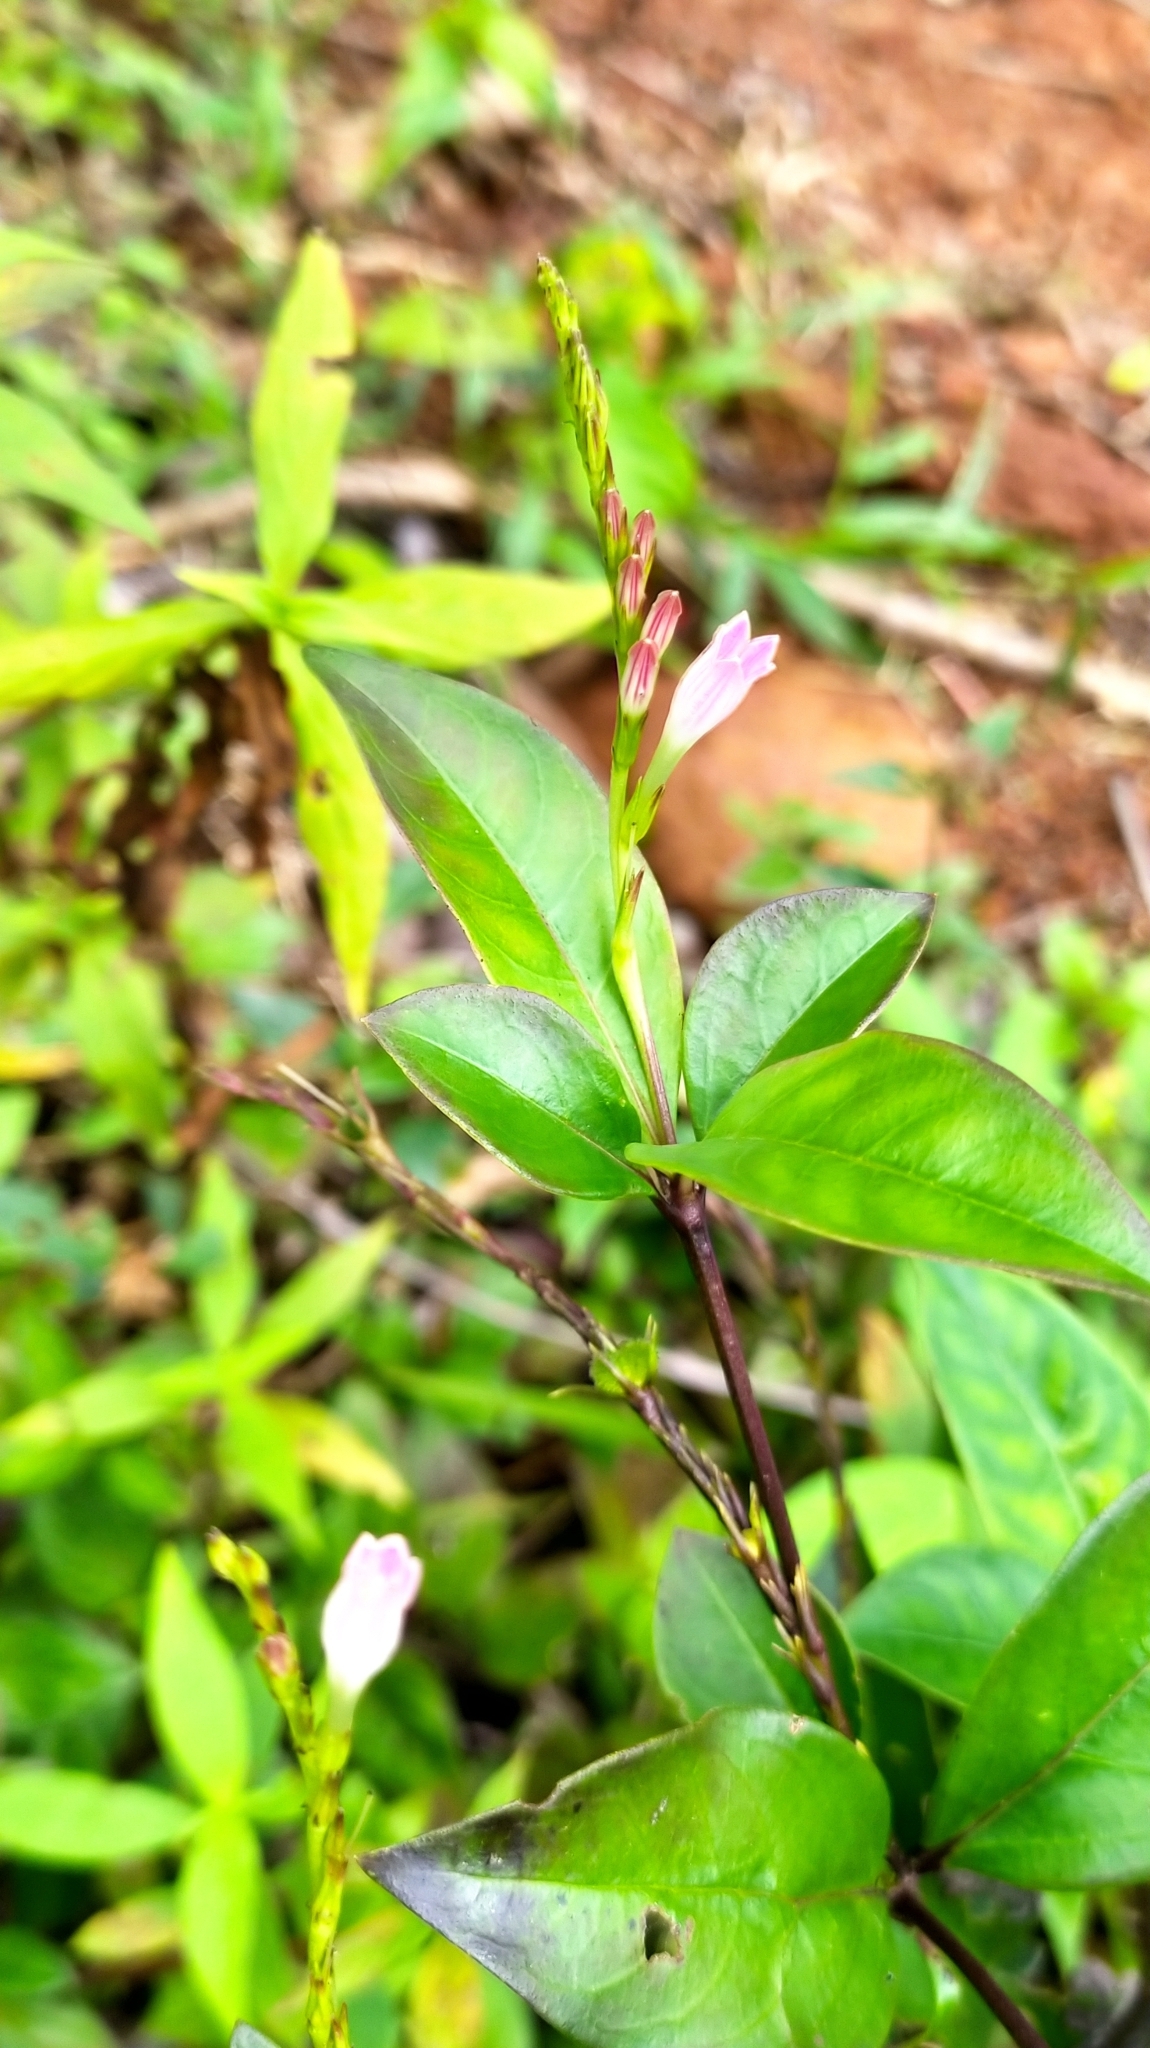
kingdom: Plantae
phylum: Tracheophyta
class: Magnoliopsida
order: Gentianales
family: Loganiaceae
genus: Spigelia
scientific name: Spigelia hamellioides
